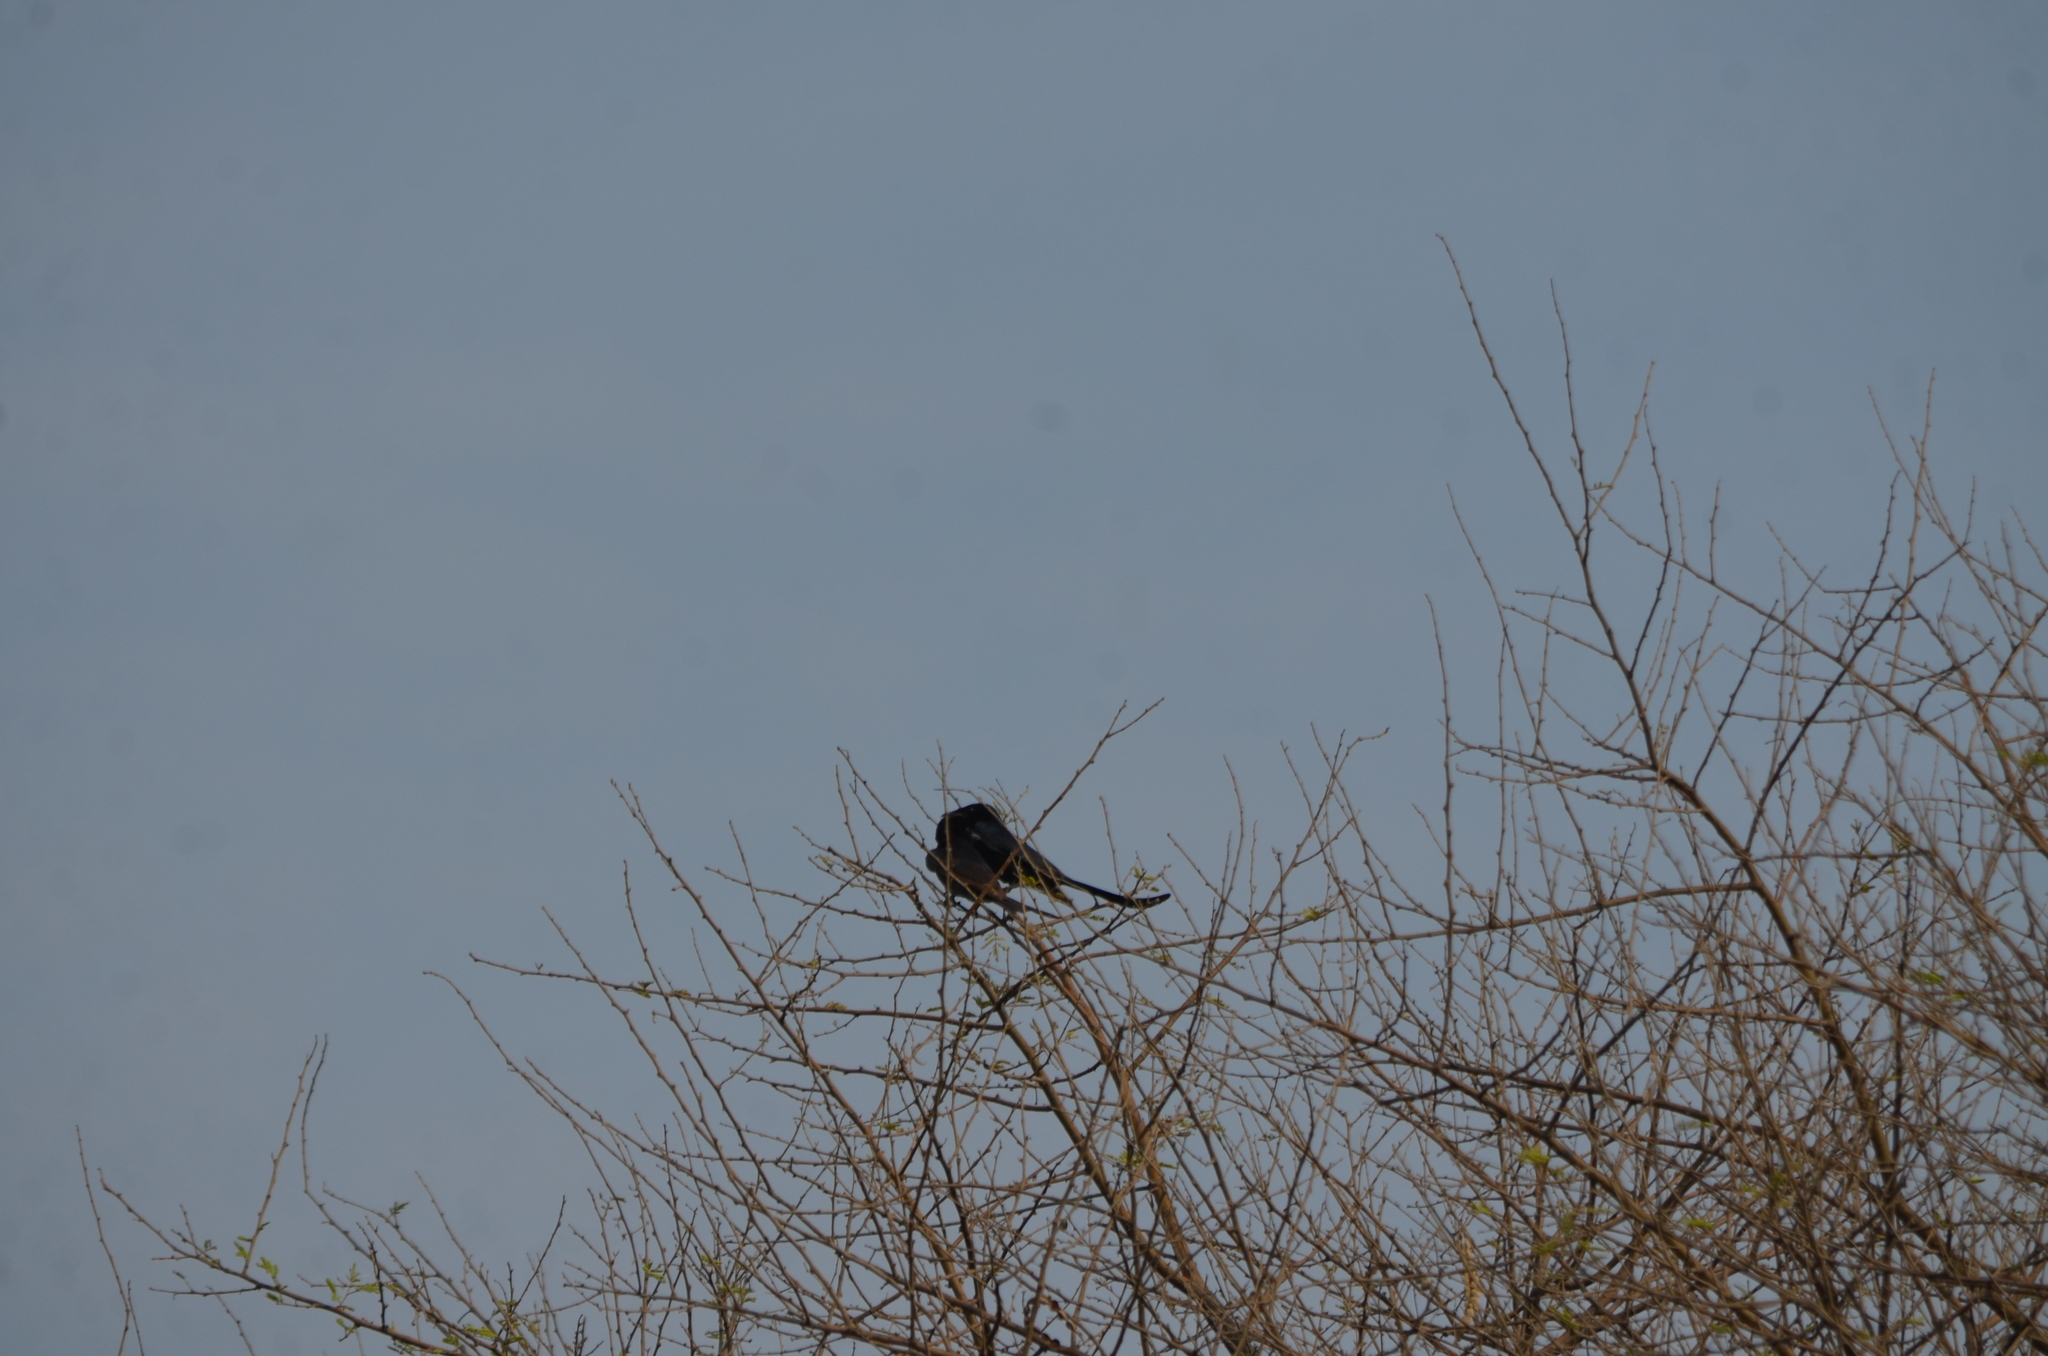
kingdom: Animalia
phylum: Chordata
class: Aves
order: Passeriformes
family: Dicruridae
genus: Dicrurus
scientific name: Dicrurus macrocercus
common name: Black drongo
